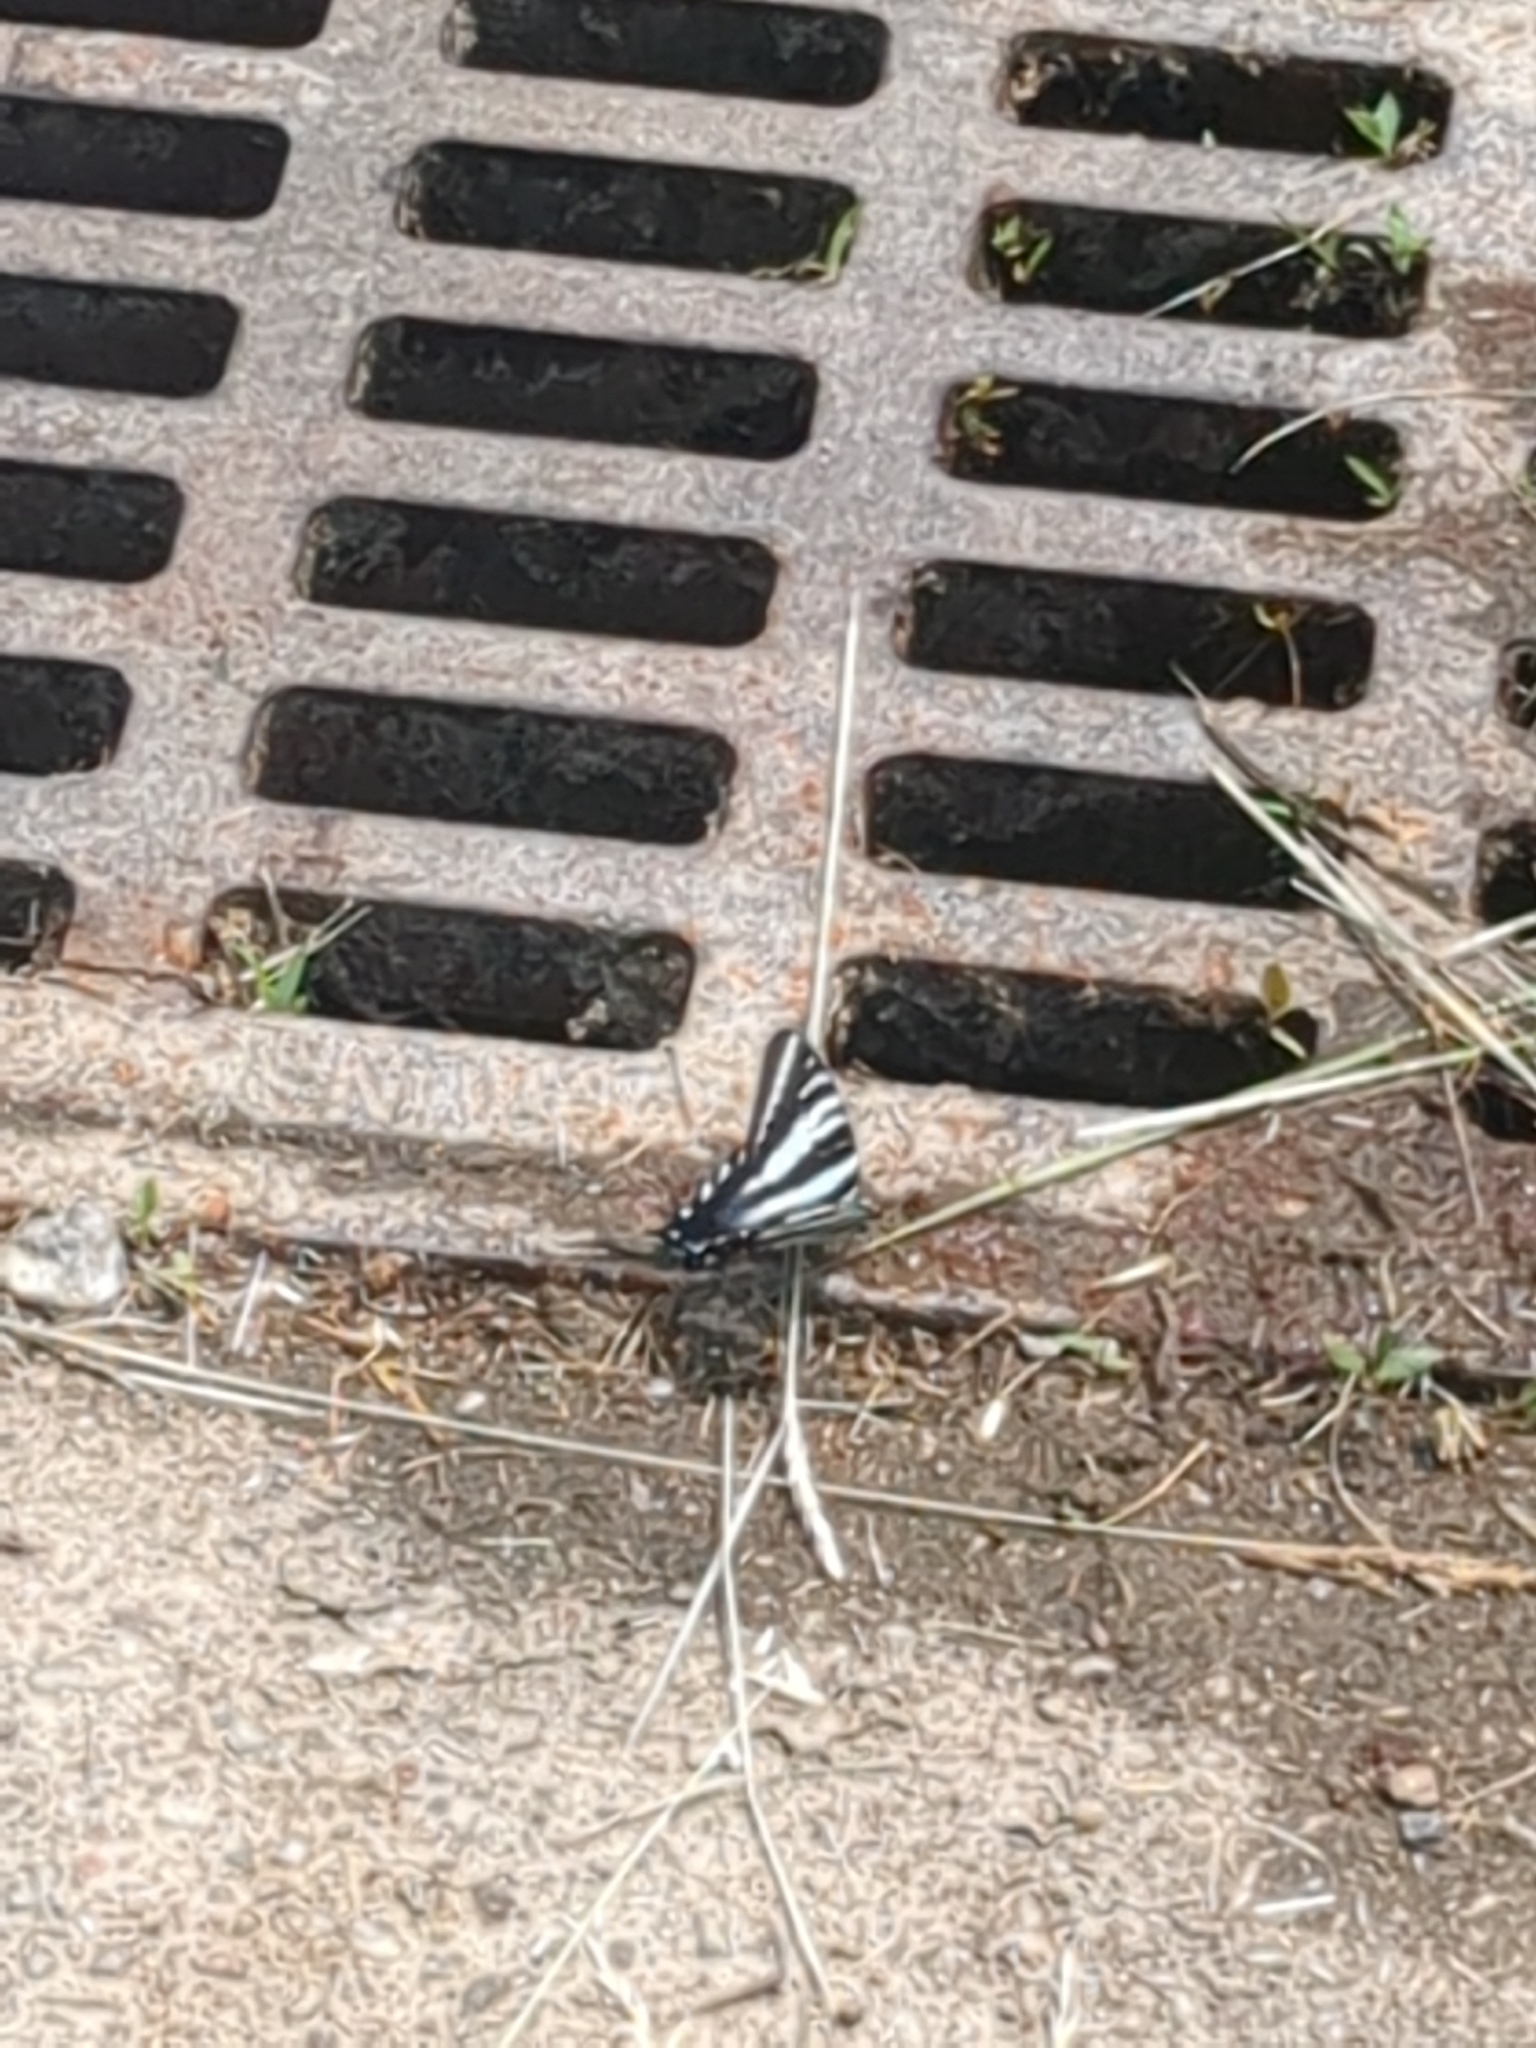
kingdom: Animalia
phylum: Arthropoda
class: Insecta
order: Lepidoptera
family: Papilionidae
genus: Protographium
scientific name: Protographium marcellus
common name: Zebra swallowtail
